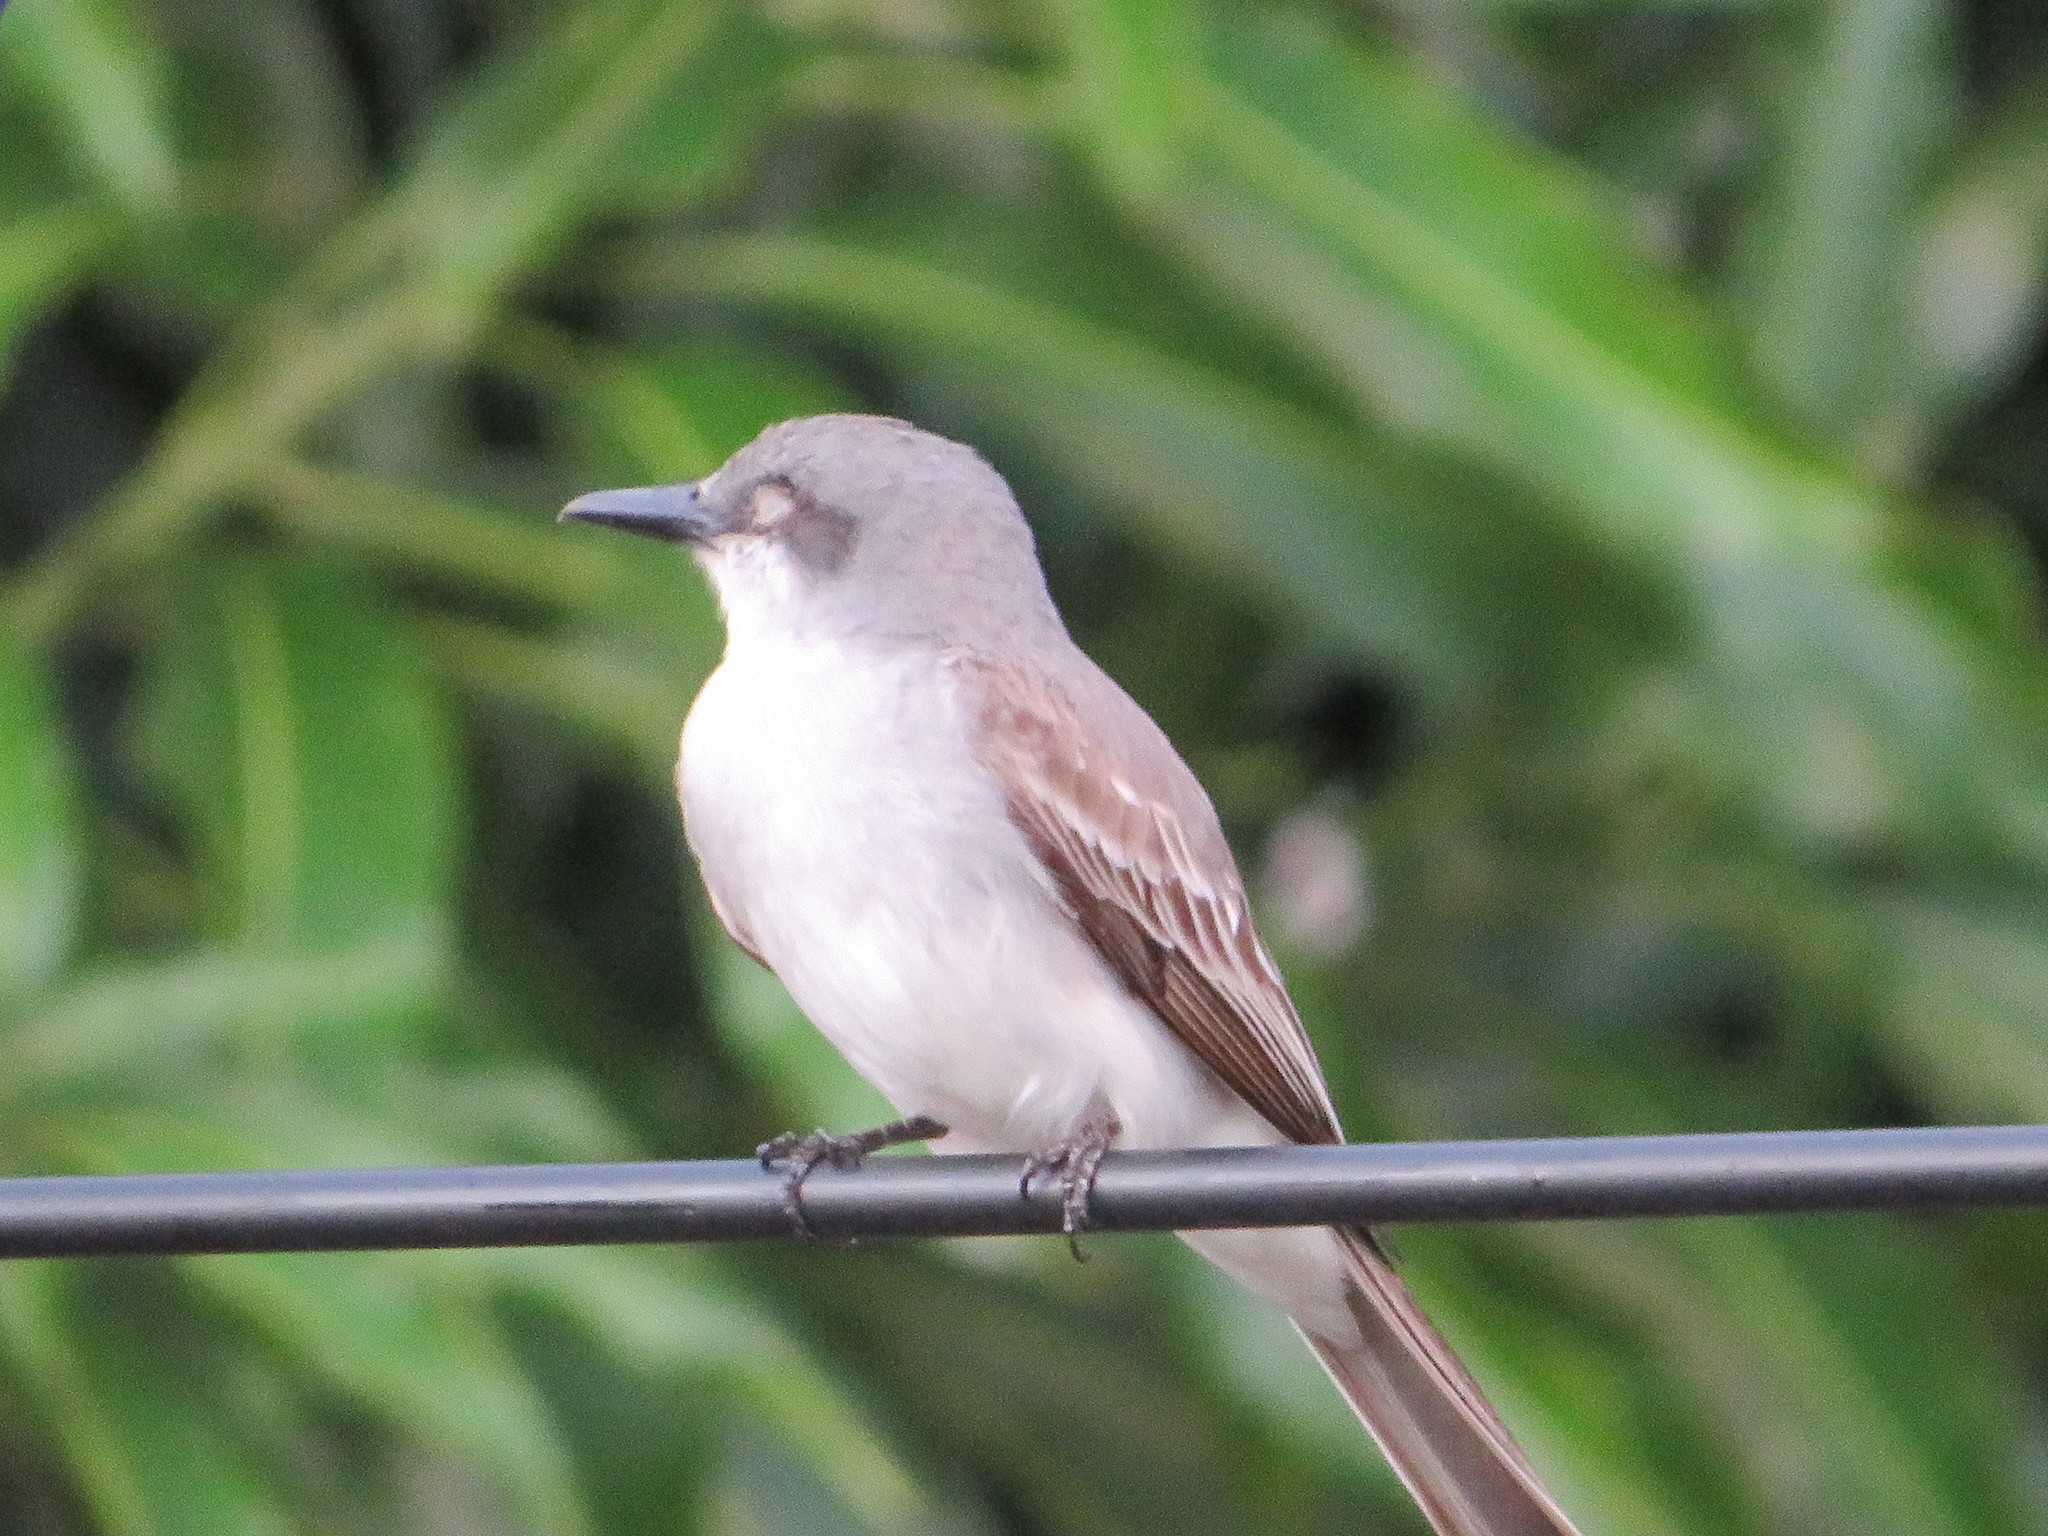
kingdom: Animalia
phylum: Chordata
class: Aves
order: Passeriformes
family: Tyrannidae
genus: Tyrannus
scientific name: Tyrannus dominicensis
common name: Gray kingbird
